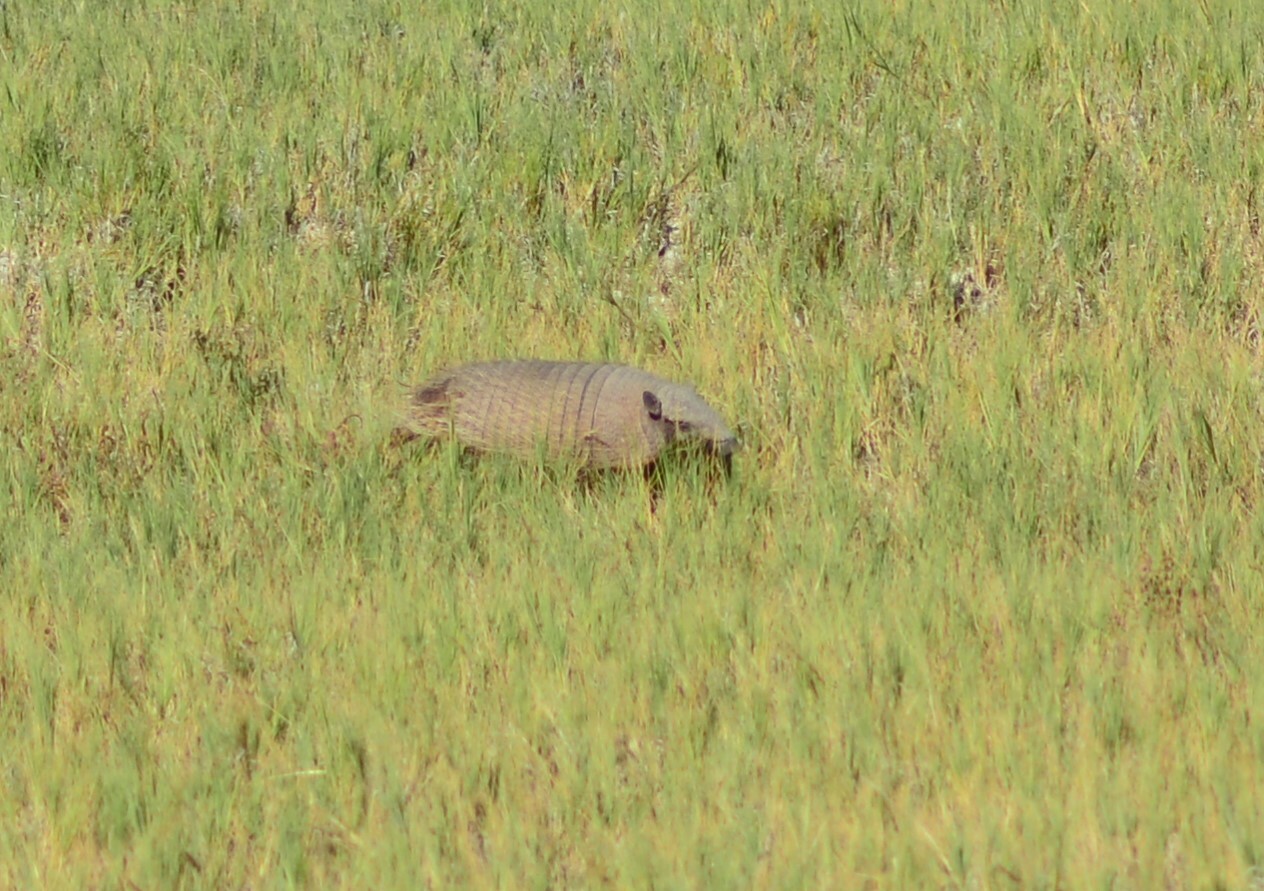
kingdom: Animalia
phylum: Chordata
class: Mammalia
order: Cingulata
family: Dasypodidae
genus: Chaetophractus
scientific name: Chaetophractus villosus
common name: Big hairy armadillo
